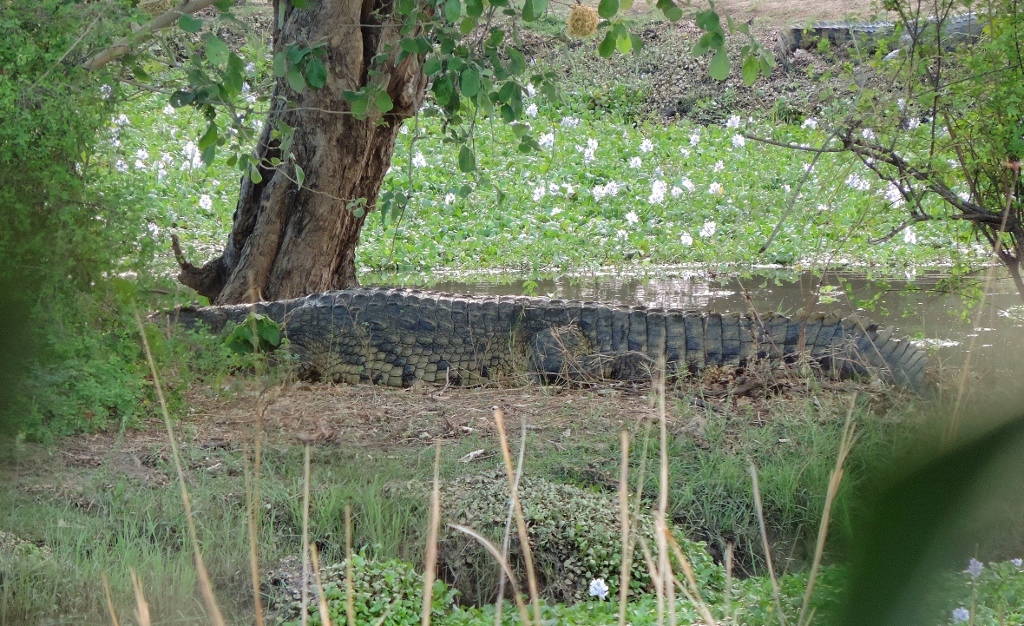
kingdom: Animalia
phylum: Chordata
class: Crocodylia
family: Crocodylidae
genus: Crocodylus
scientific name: Crocodylus niloticus
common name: Nile crocodile
